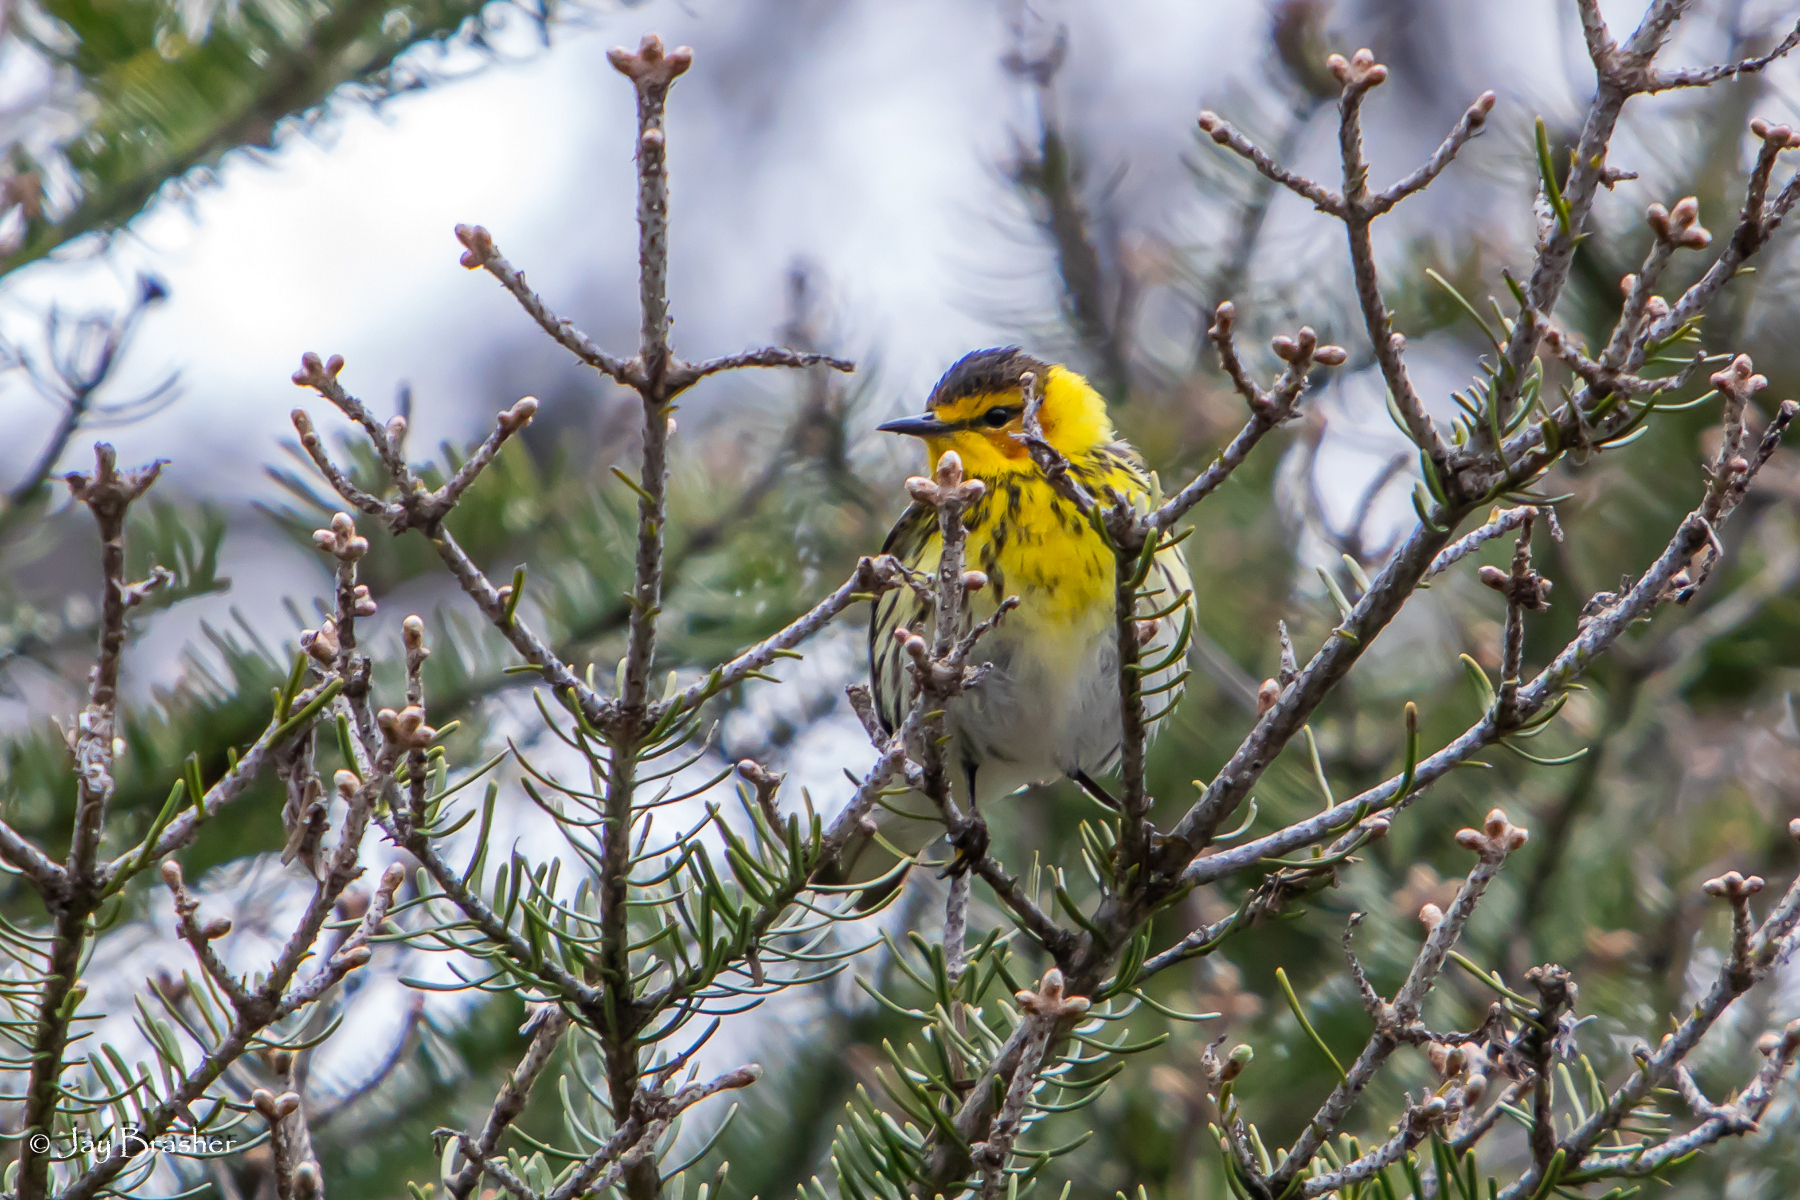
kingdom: Animalia
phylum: Chordata
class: Aves
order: Passeriformes
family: Parulidae
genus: Setophaga
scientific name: Setophaga tigrina
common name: Cape may warbler
